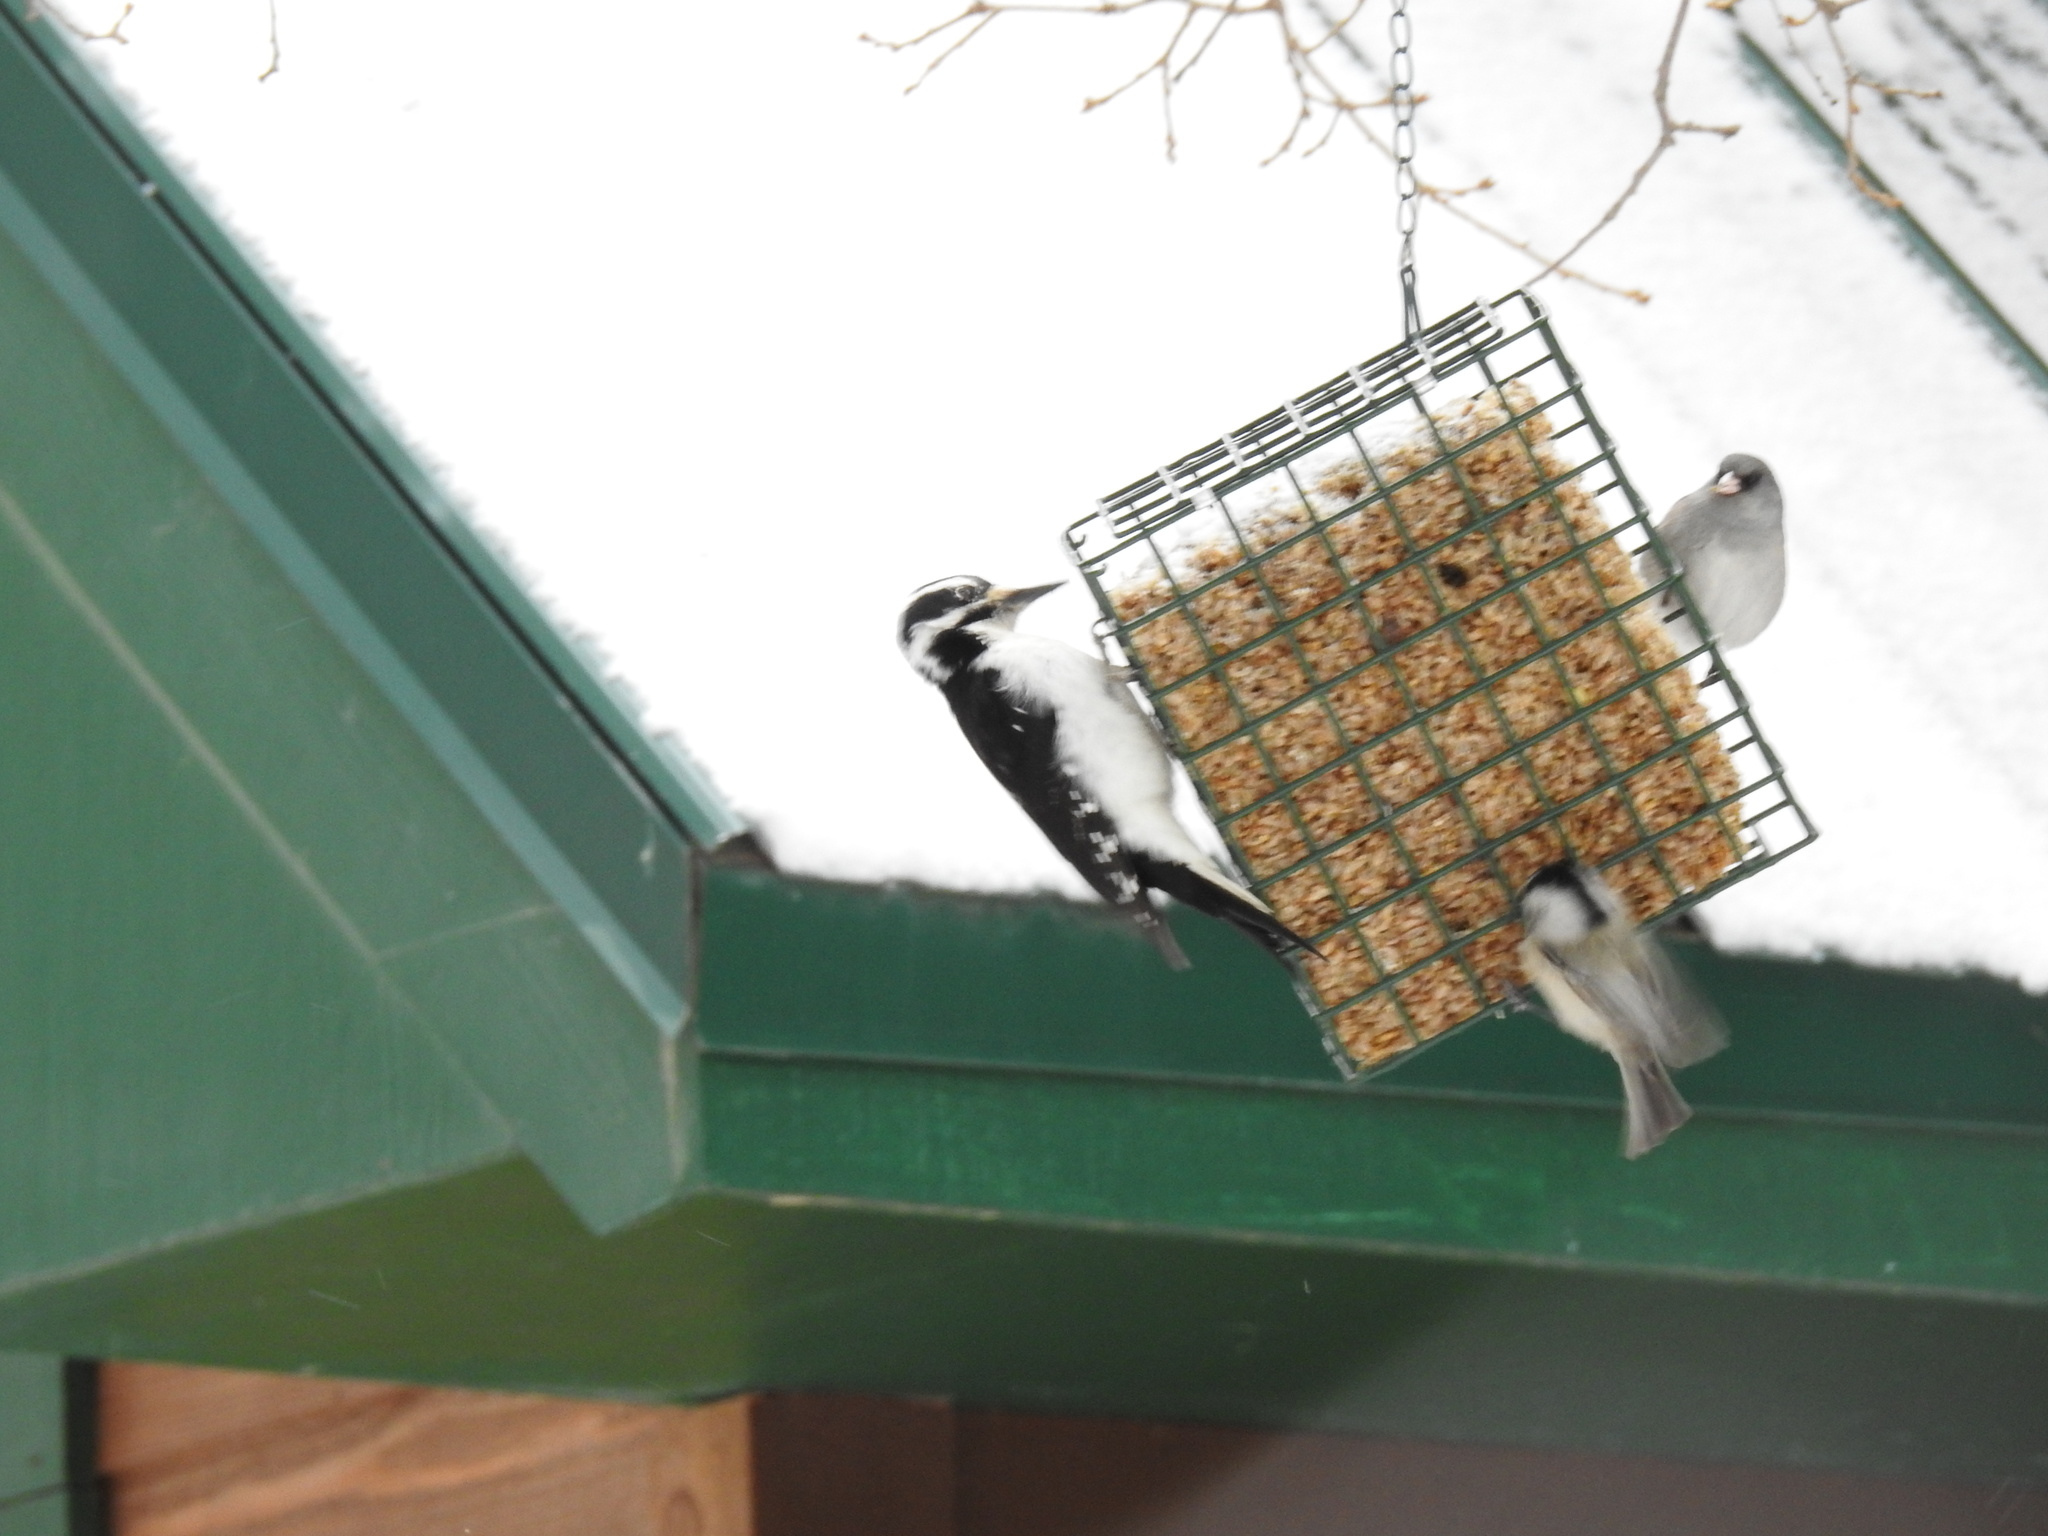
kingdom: Animalia
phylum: Chordata
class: Aves
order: Piciformes
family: Picidae
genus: Leuconotopicus
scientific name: Leuconotopicus villosus
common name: Hairy woodpecker
